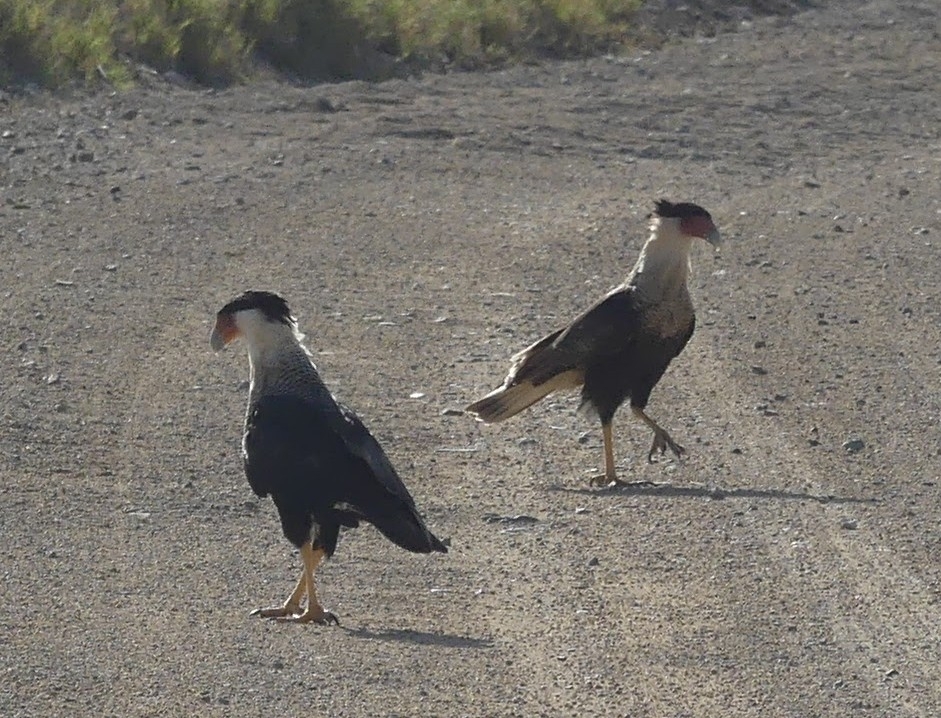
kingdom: Animalia
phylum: Chordata
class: Aves
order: Falconiformes
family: Falconidae
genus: Caracara
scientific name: Caracara plancus
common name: Southern caracara
